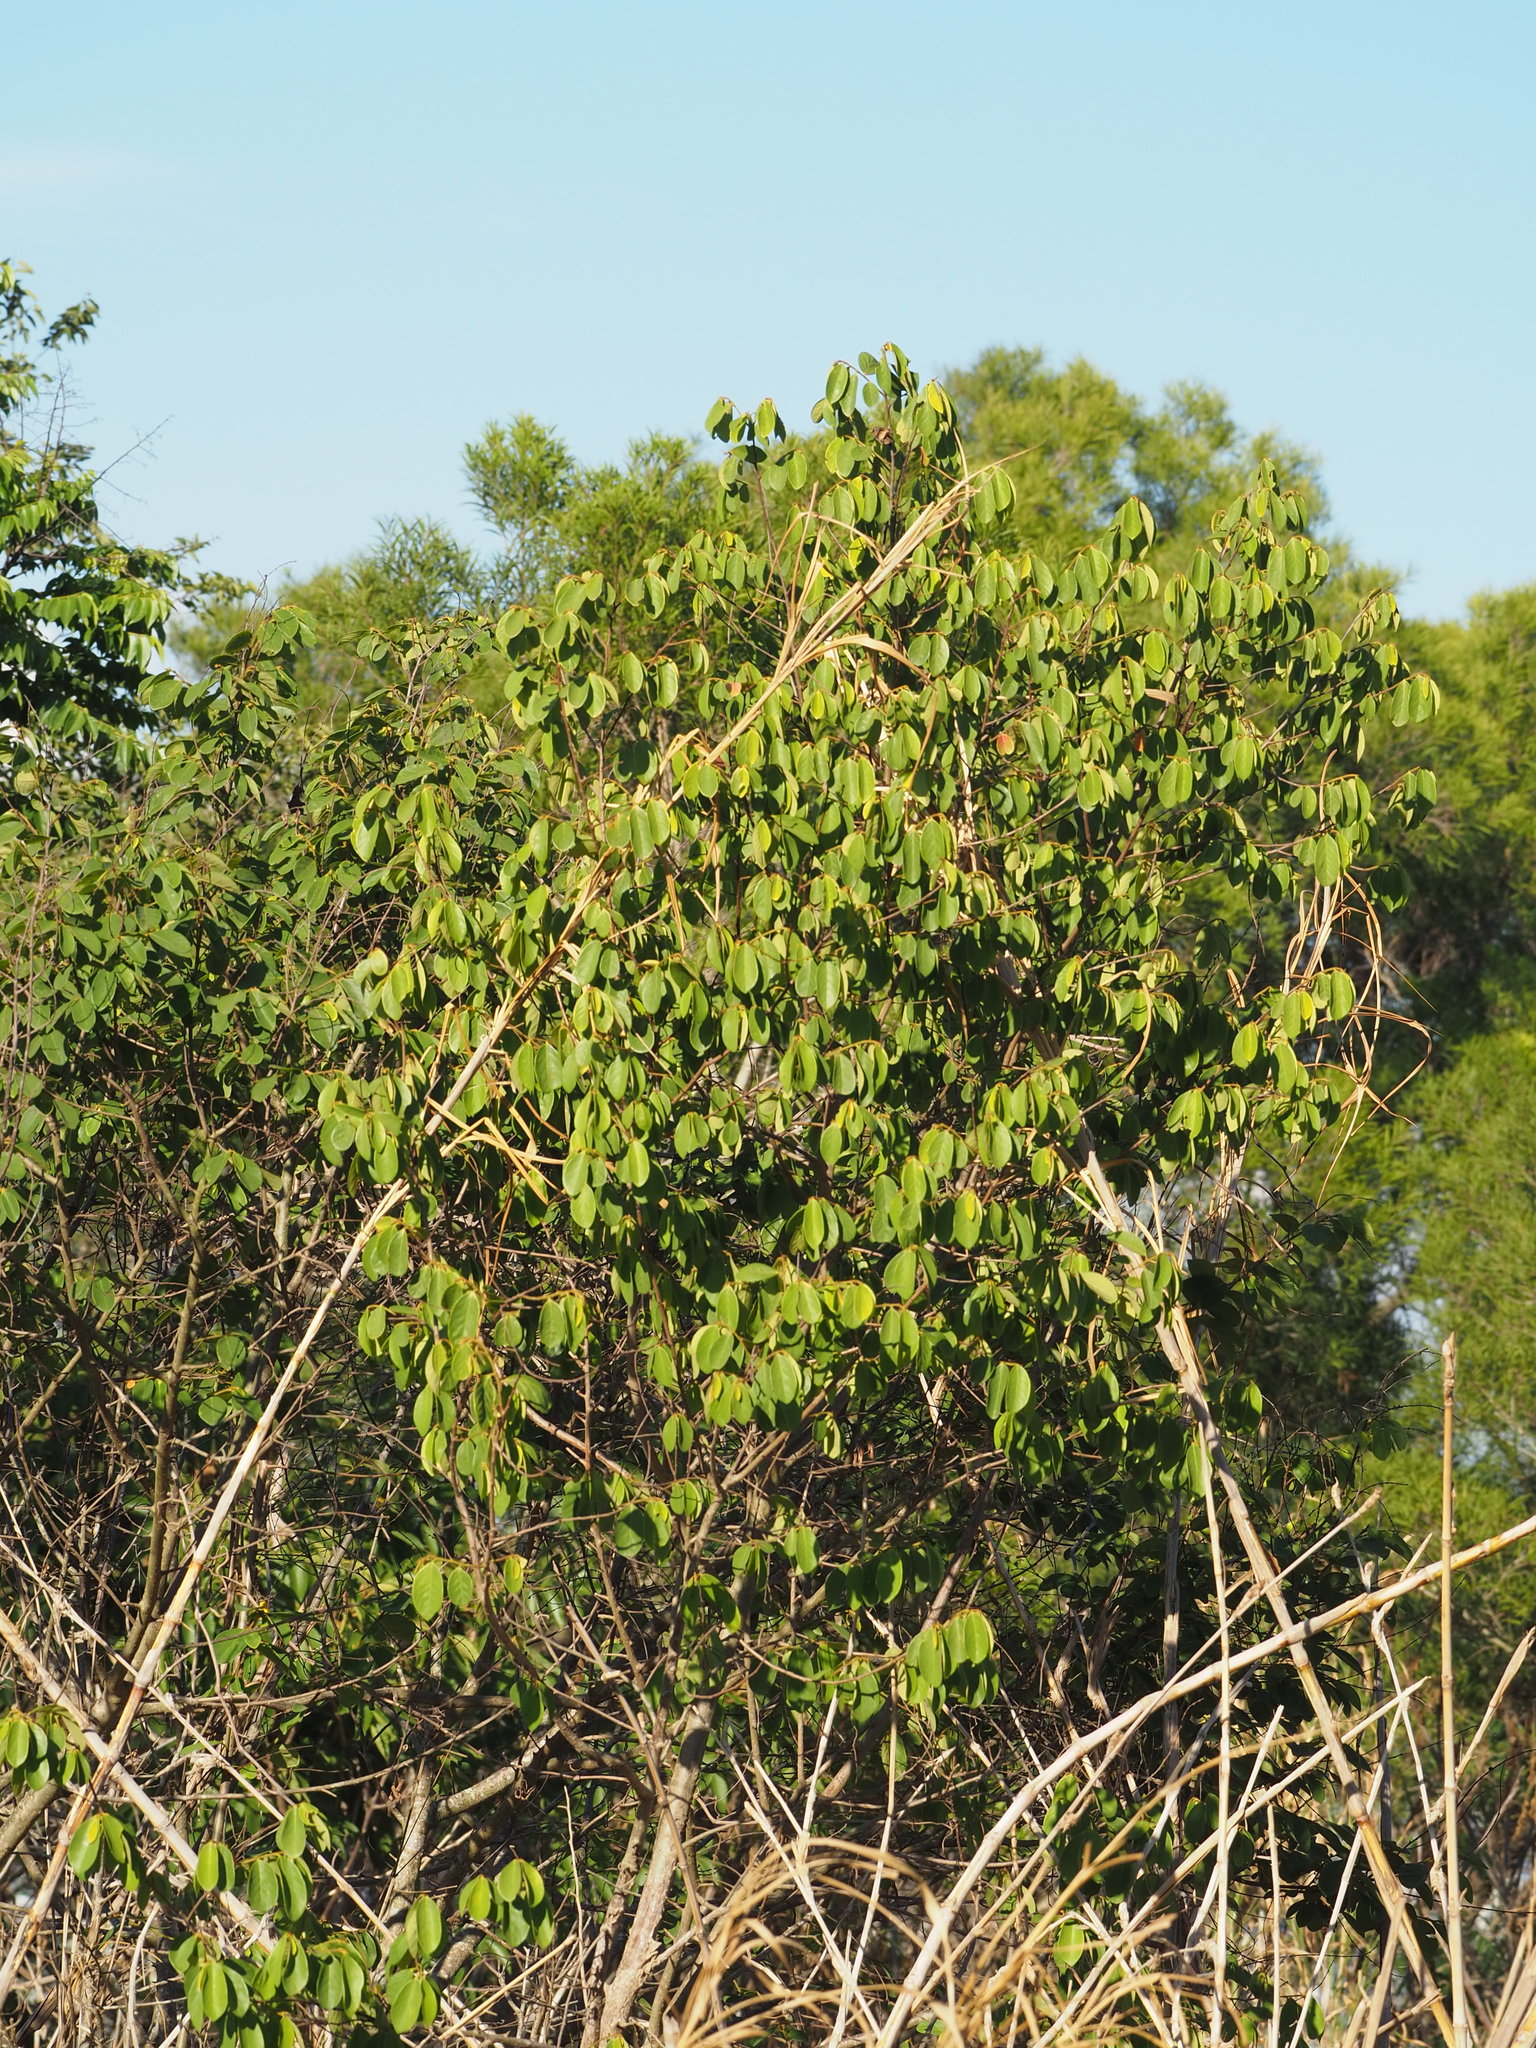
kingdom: Plantae
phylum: Tracheophyta
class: Magnoliopsida
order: Malpighiales
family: Phyllanthaceae
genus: Bridelia
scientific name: Bridelia tomentosa
